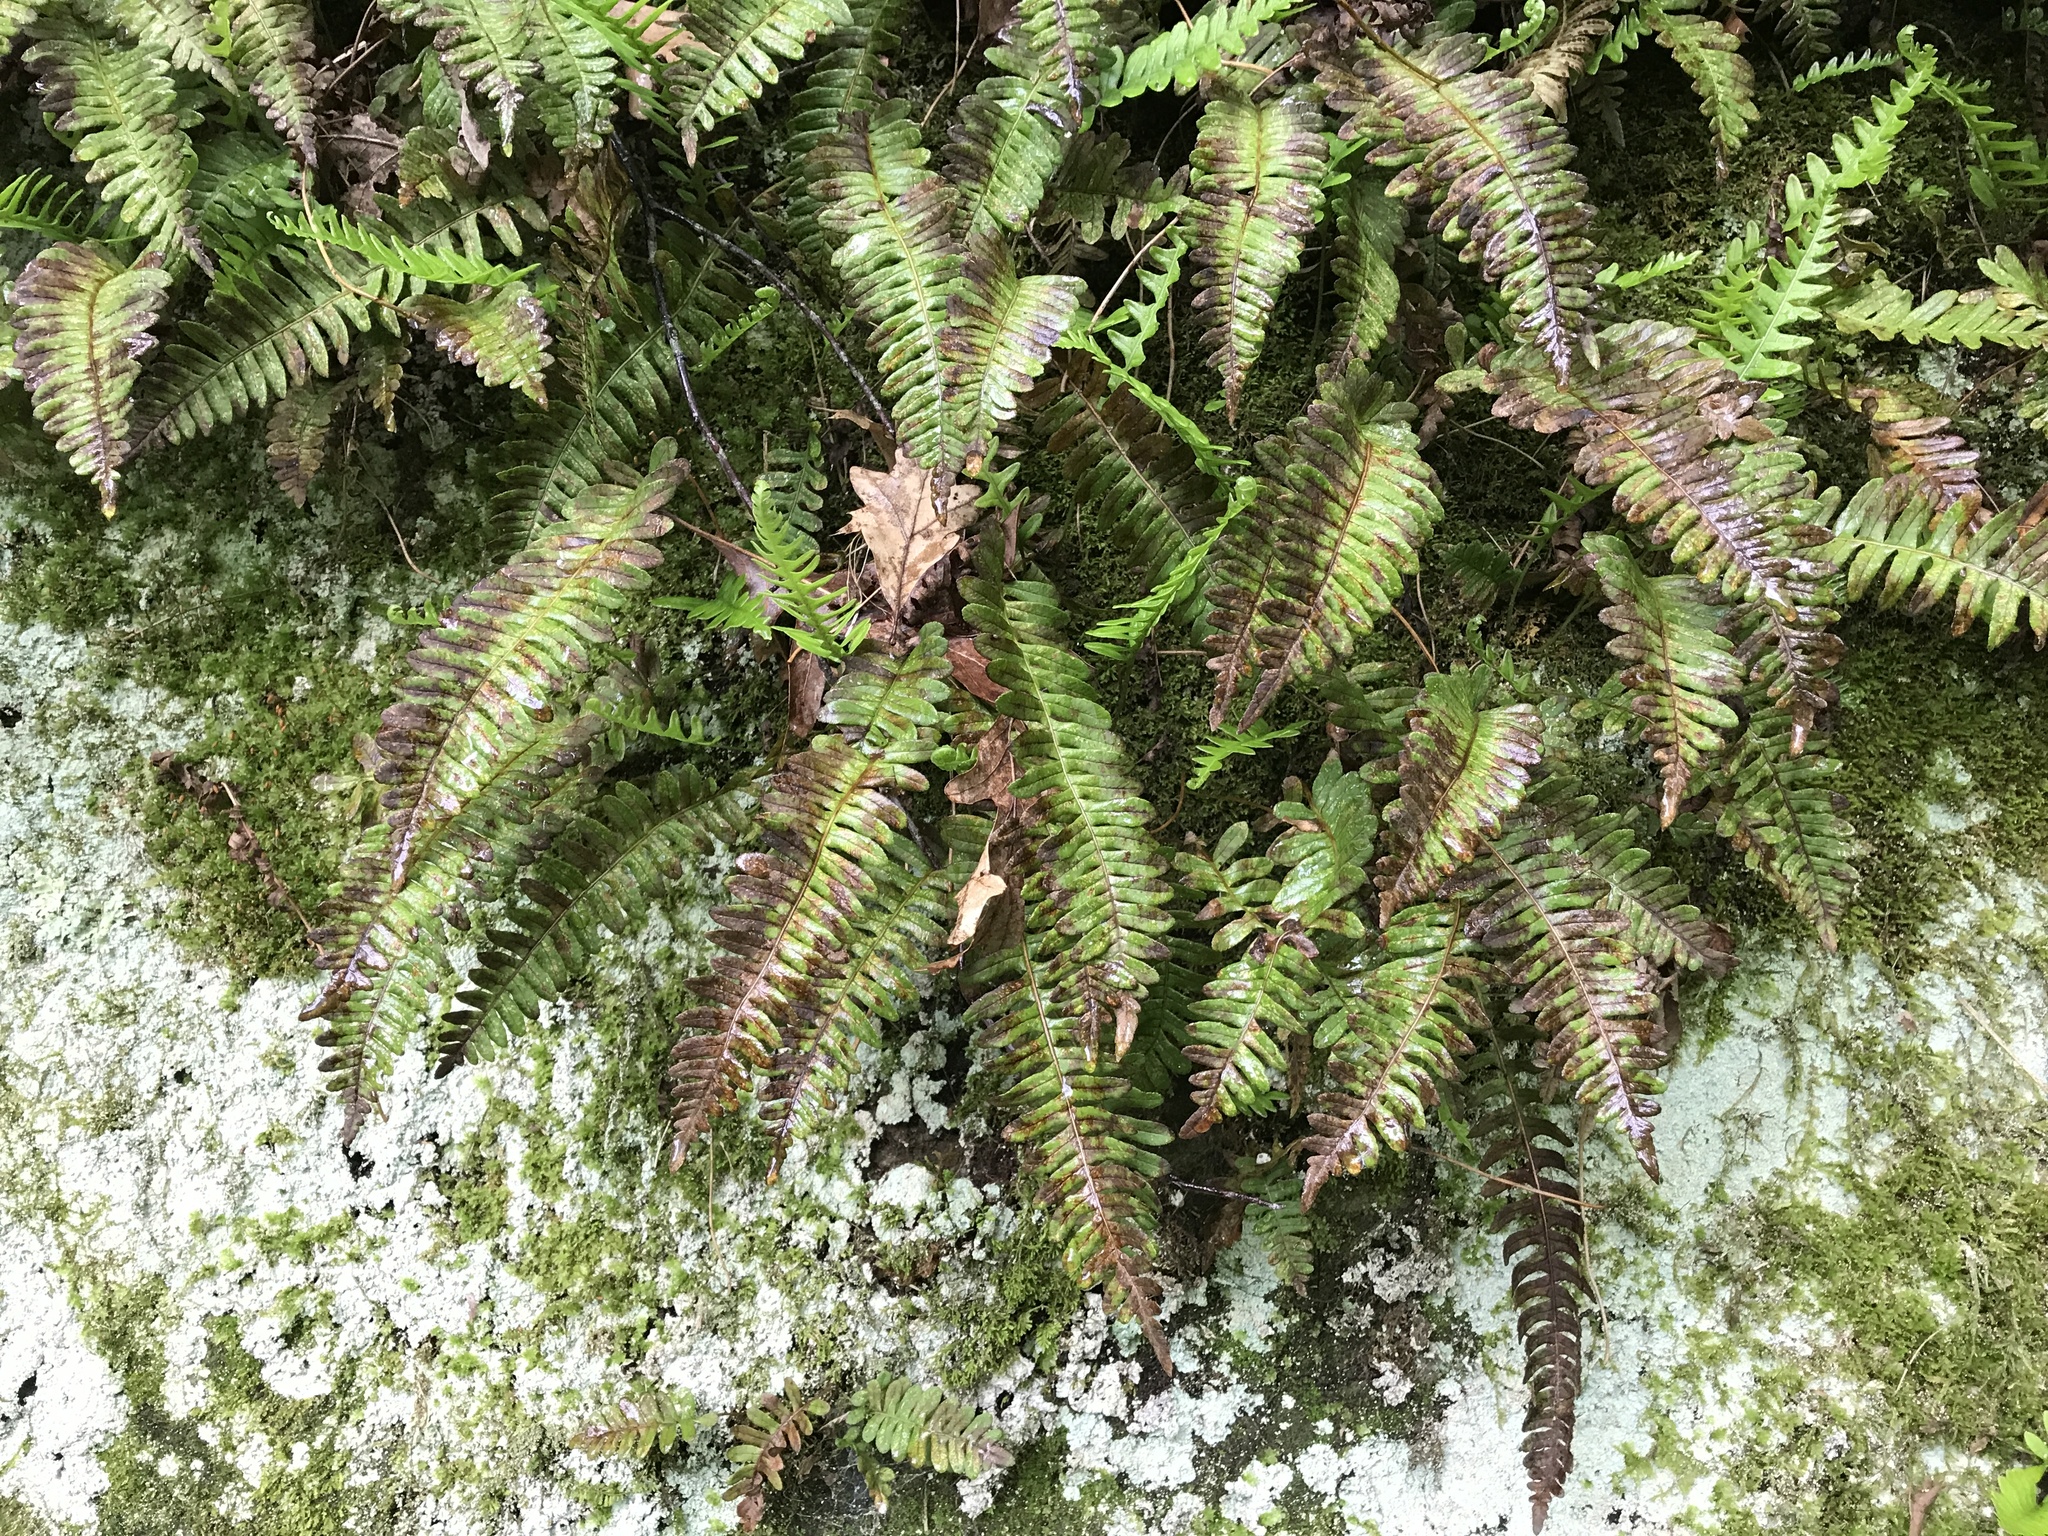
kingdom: Plantae
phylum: Tracheophyta
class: Polypodiopsida
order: Polypodiales
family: Polypodiaceae
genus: Polypodium
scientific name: Polypodium virginianum
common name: American wall fern
